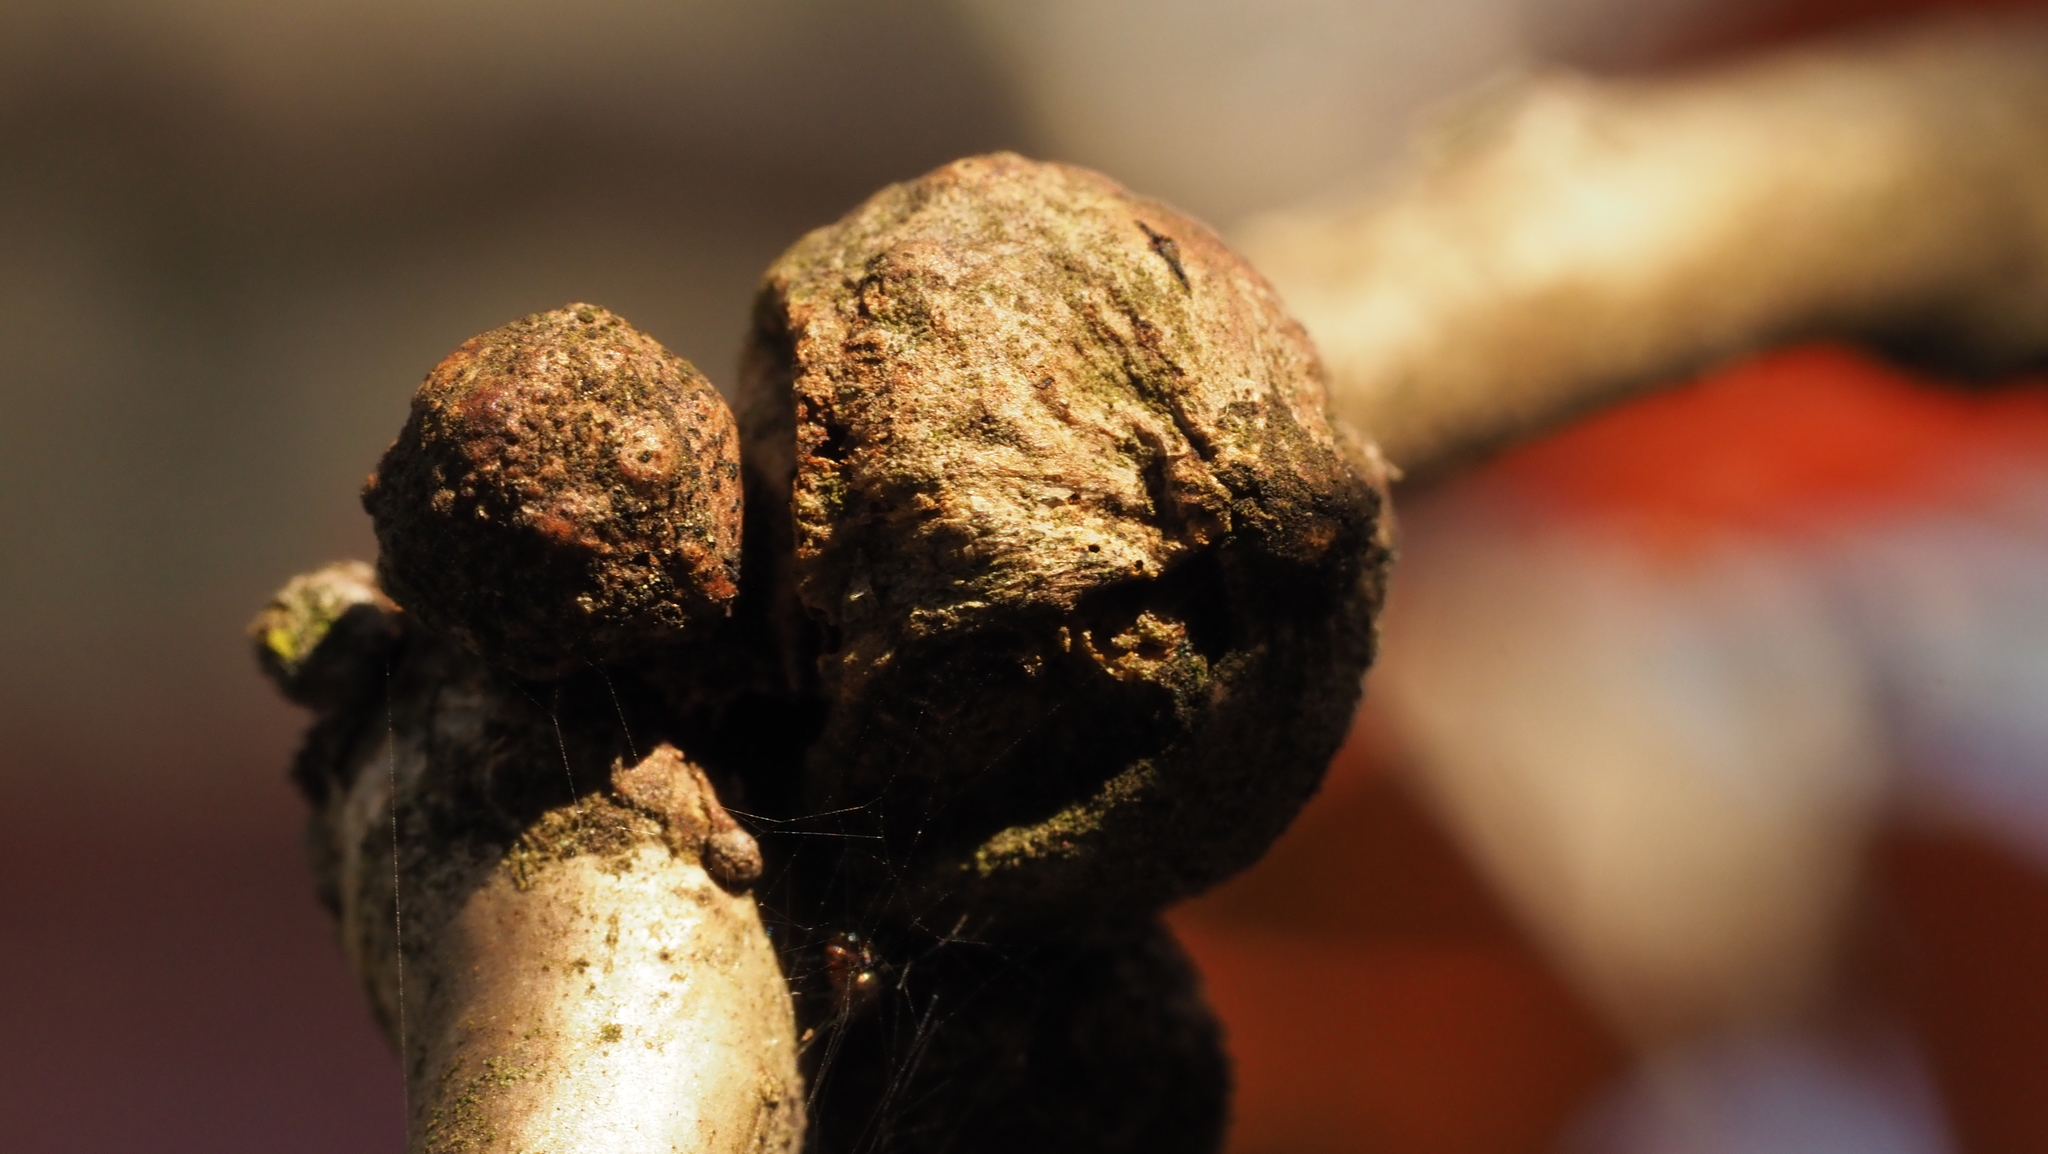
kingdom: Animalia
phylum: Arthropoda
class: Insecta
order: Hymenoptera
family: Cynipidae
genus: Disholcaspis
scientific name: Disholcaspis quercusglobulus
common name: Round bullet gall wasp
